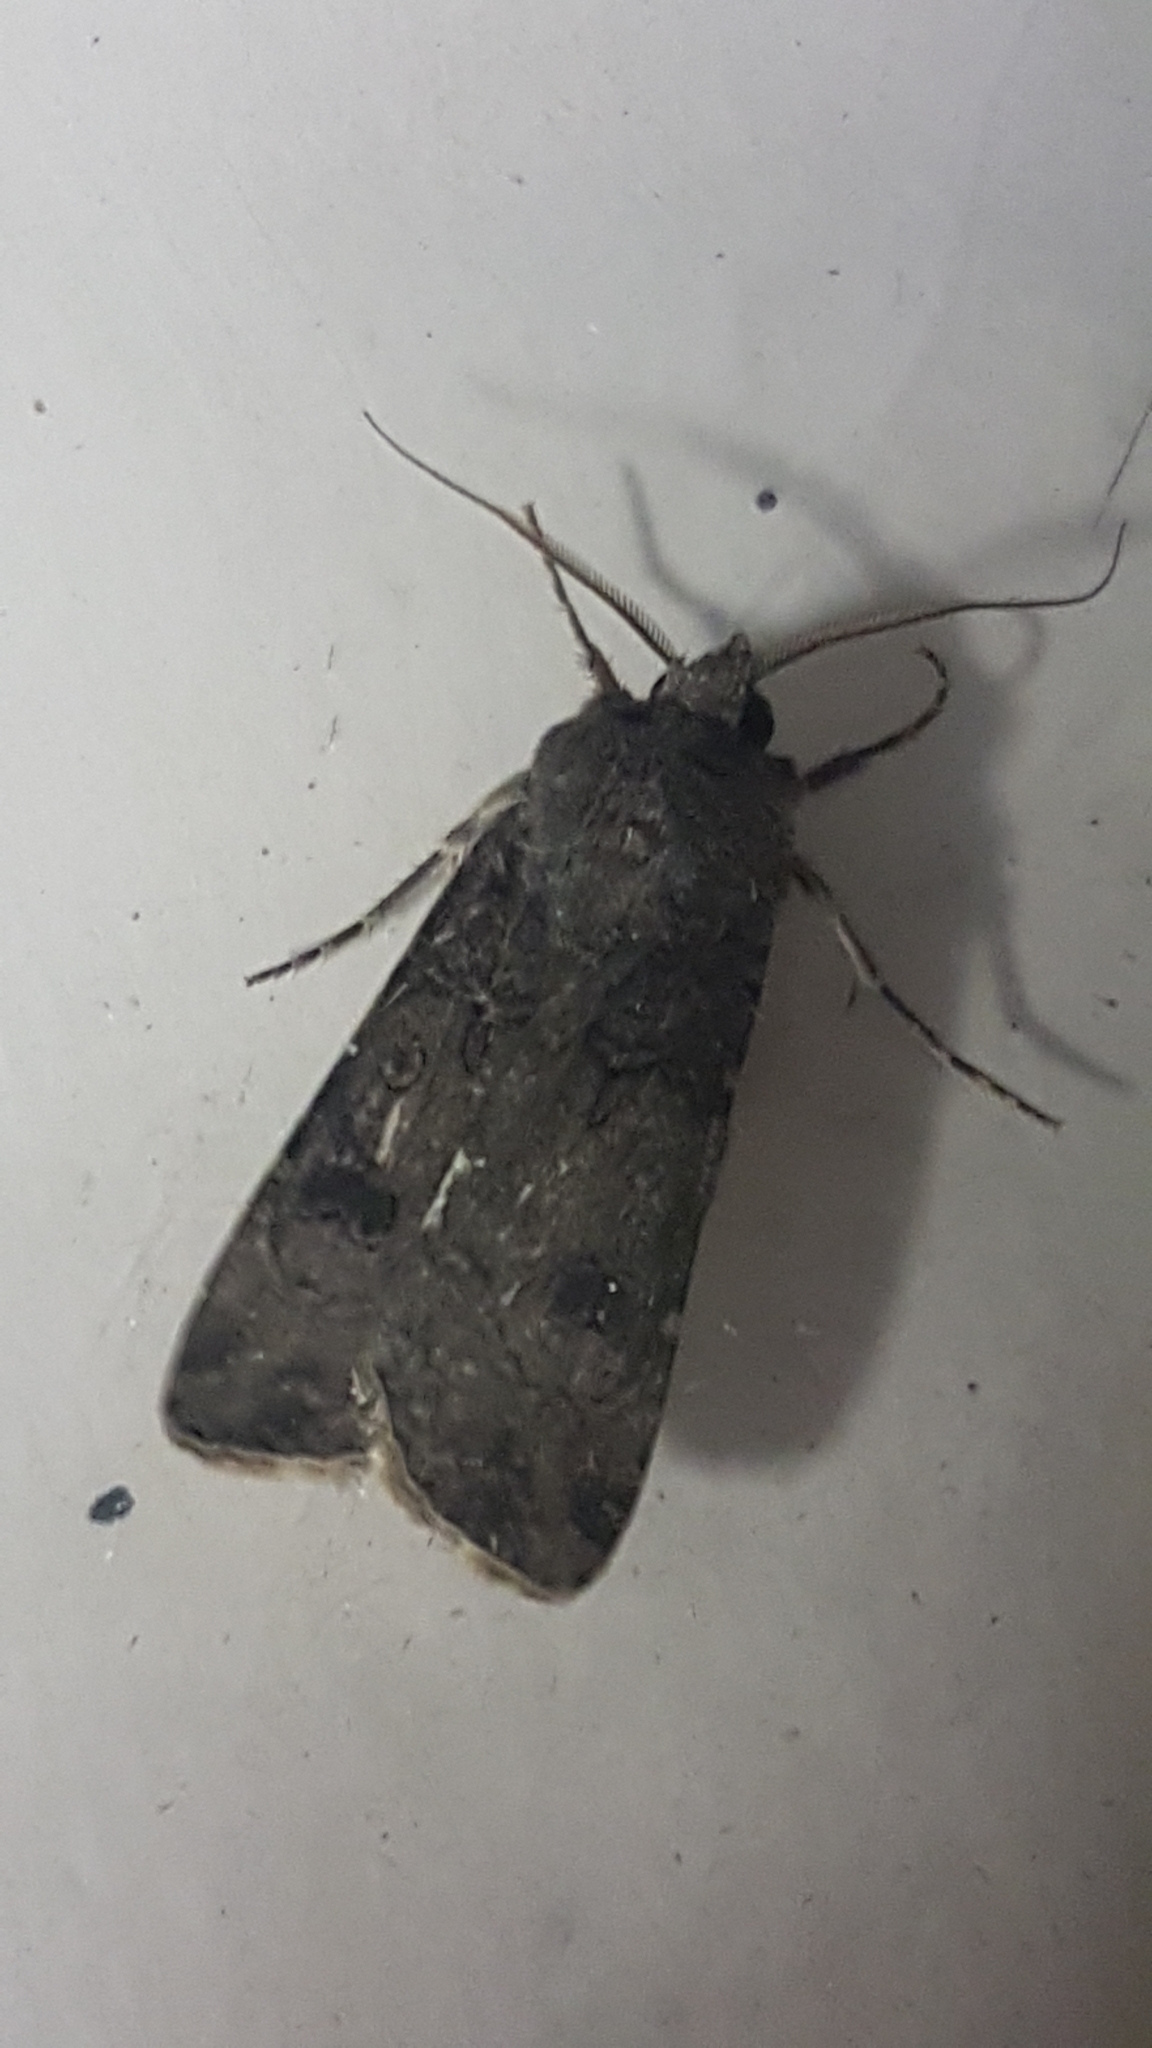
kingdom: Animalia
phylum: Arthropoda
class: Insecta
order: Lepidoptera
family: Noctuidae
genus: Agrotis
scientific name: Agrotis segetum
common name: Turnip moth
